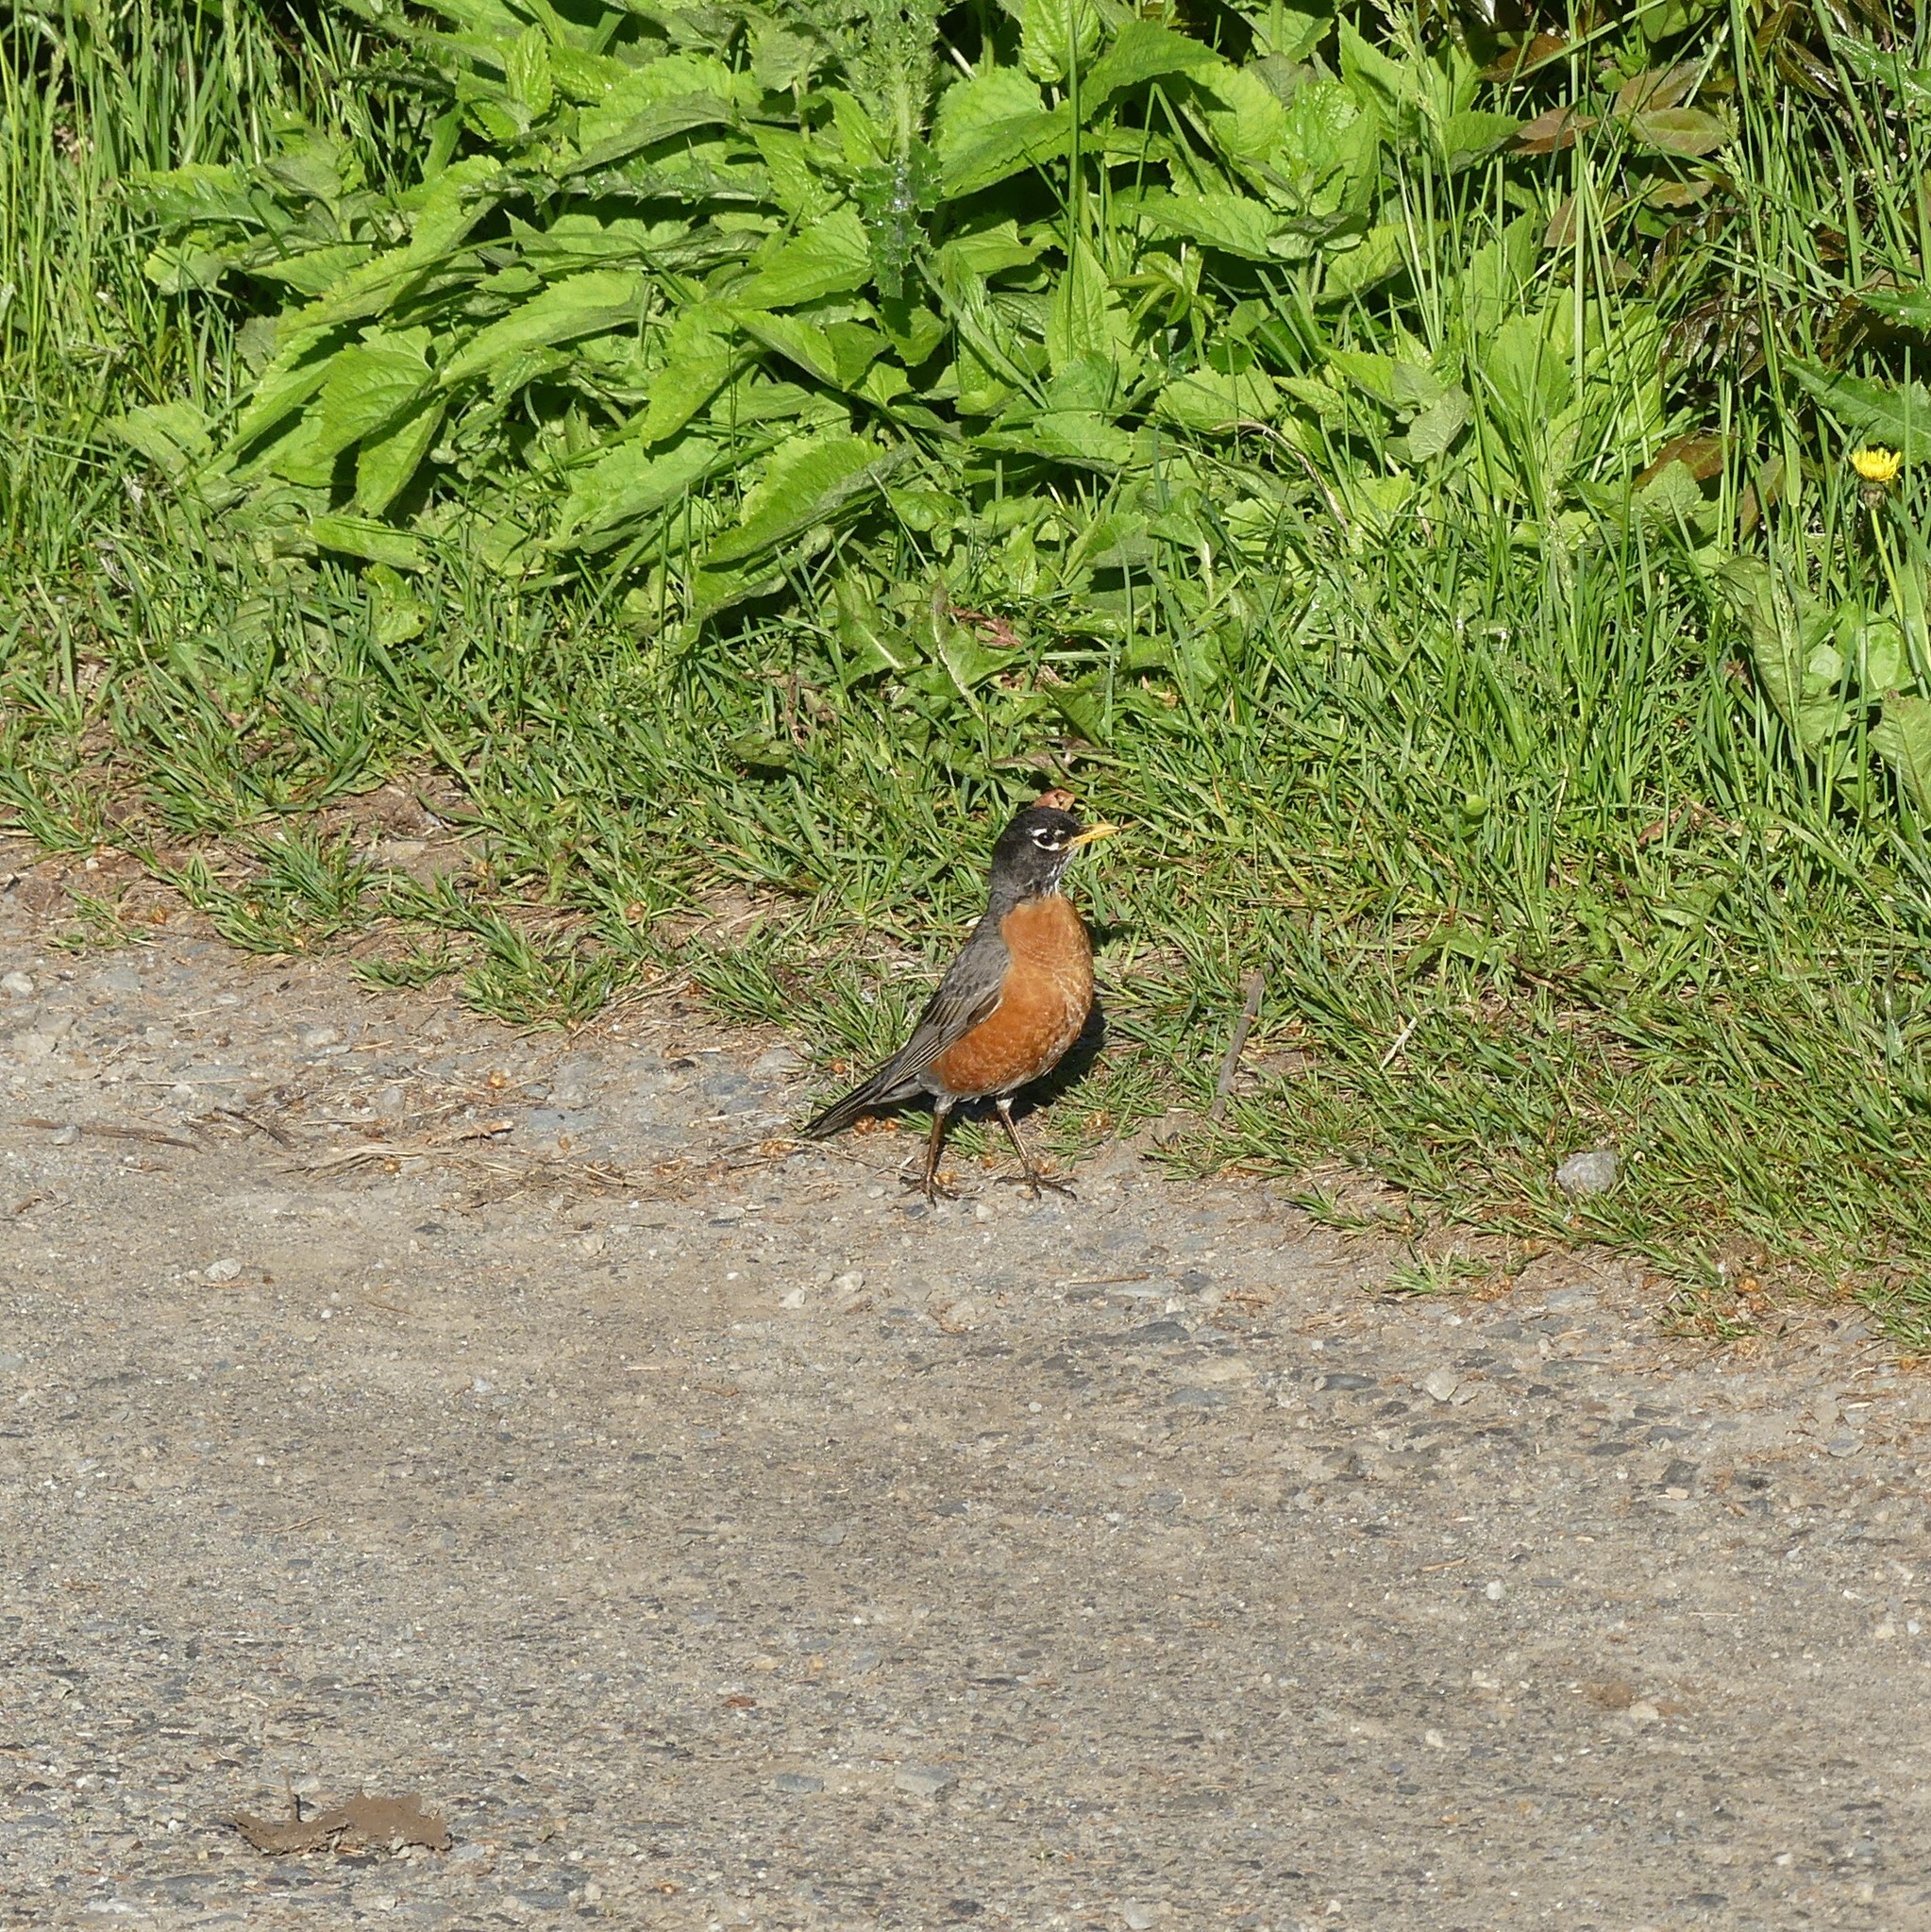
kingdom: Animalia
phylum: Chordata
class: Aves
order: Passeriformes
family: Turdidae
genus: Turdus
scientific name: Turdus migratorius
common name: American robin
